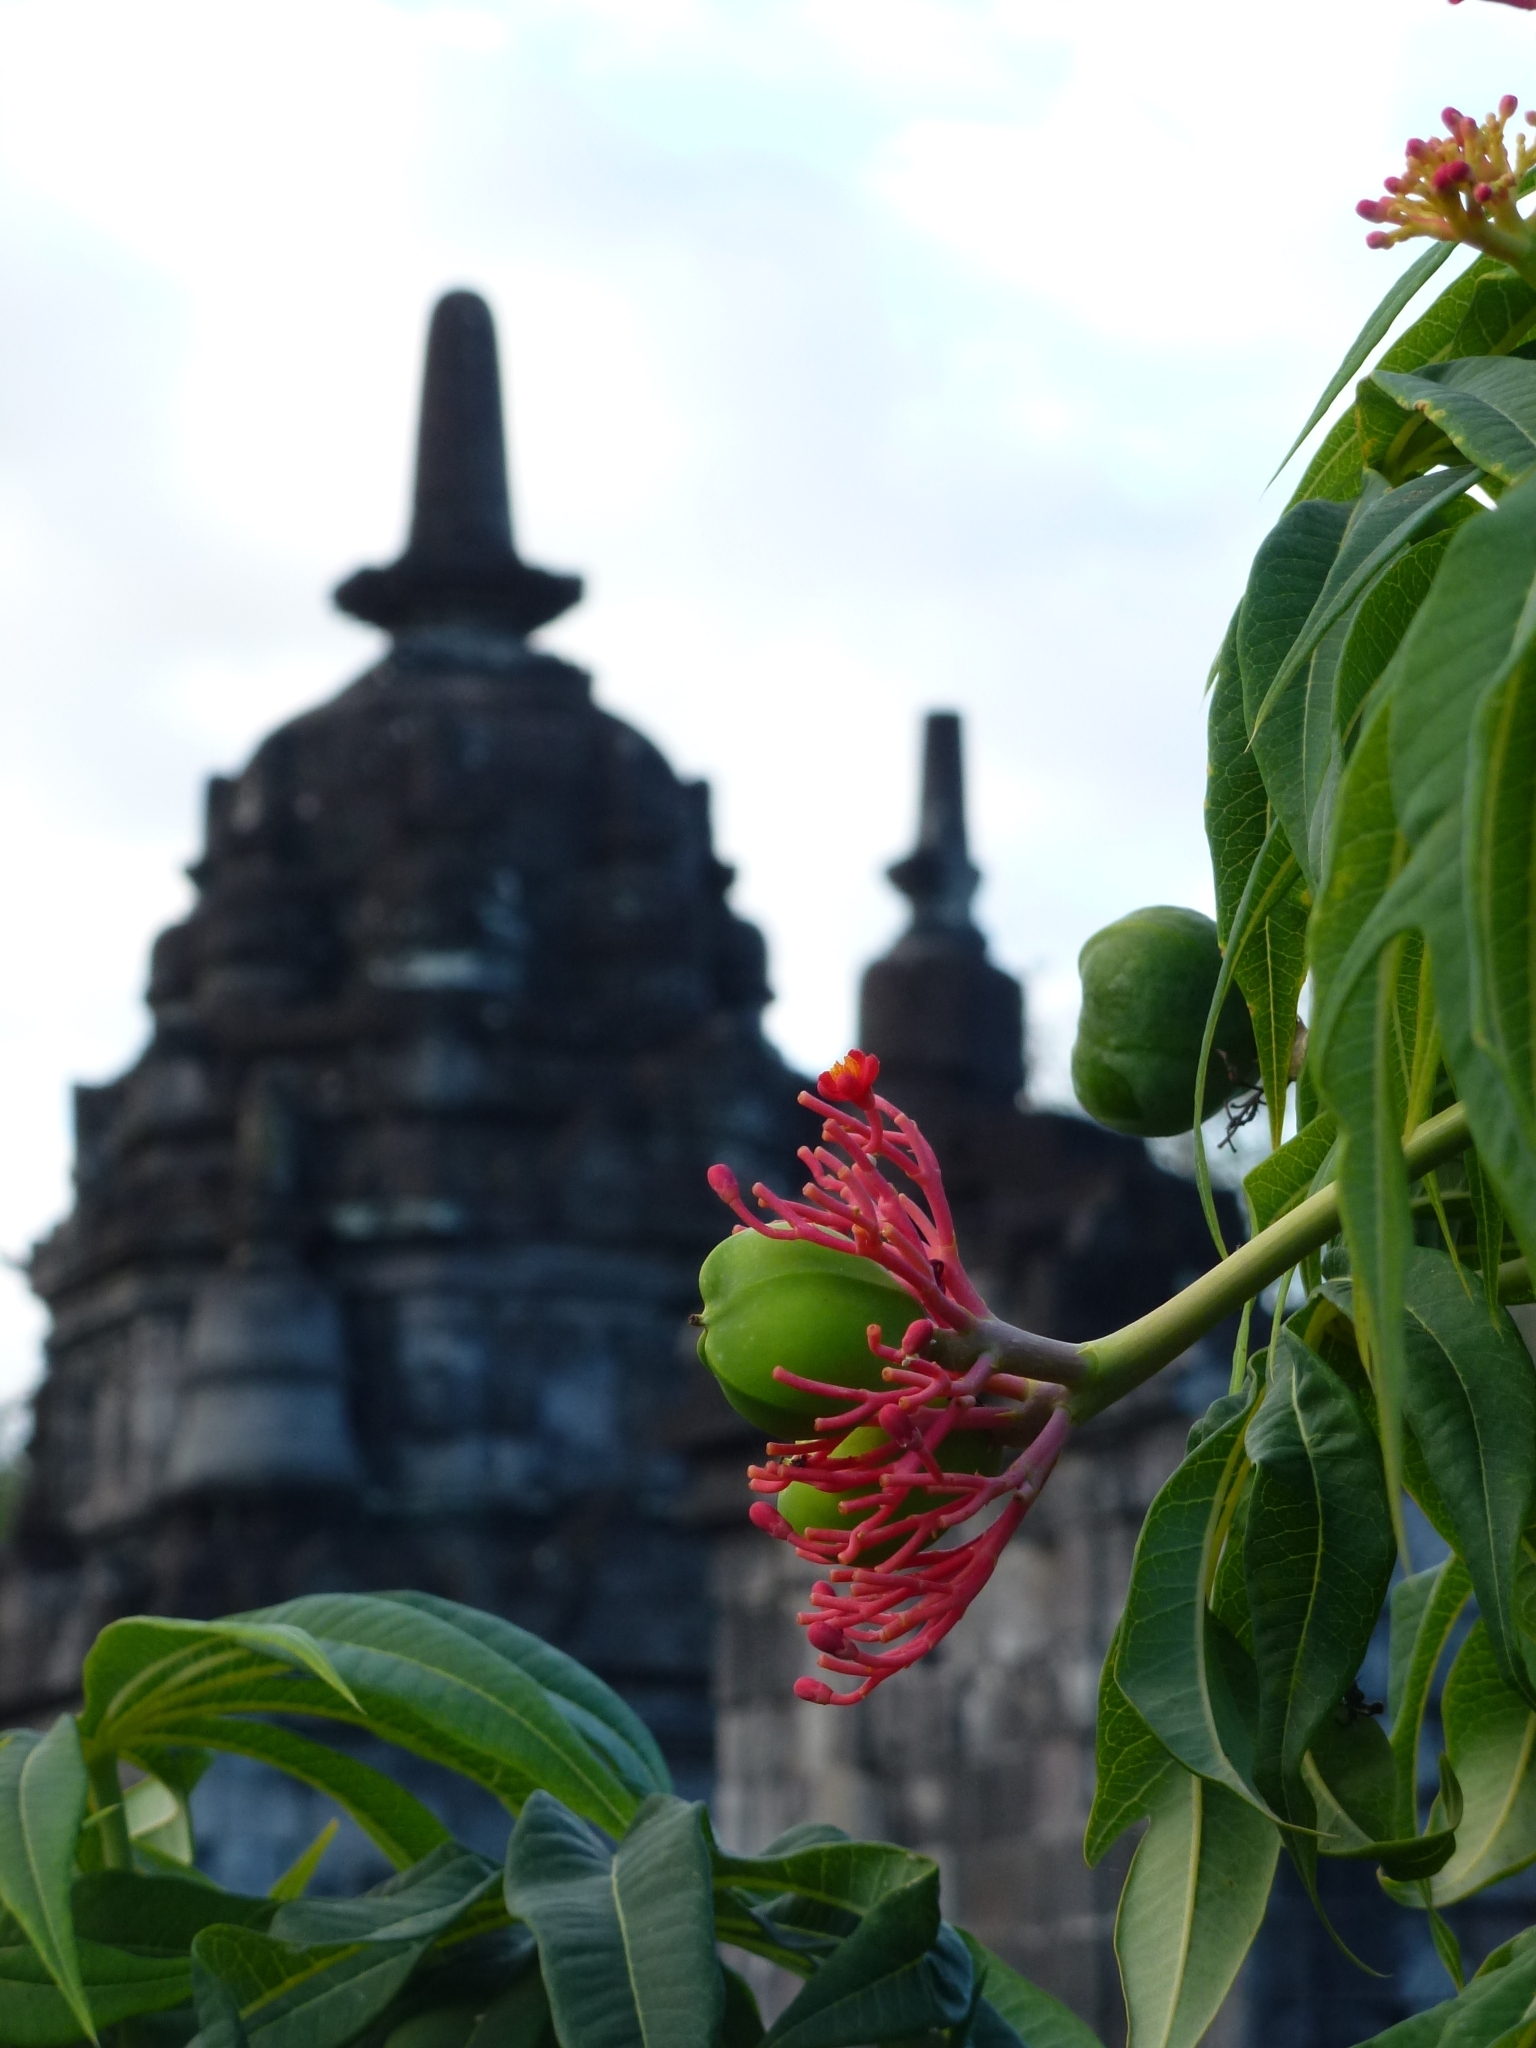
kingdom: Plantae
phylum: Tracheophyta
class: Magnoliopsida
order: Malpighiales
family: Euphorbiaceae
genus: Jatropha
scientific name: Jatropha multifida
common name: Coralbush
